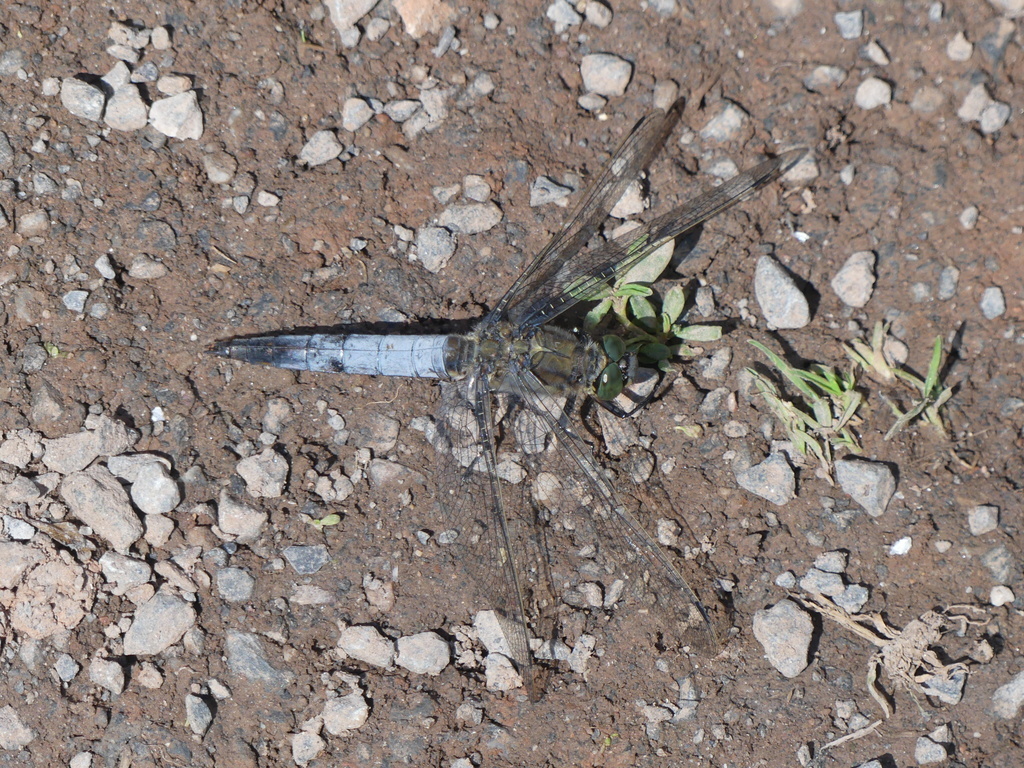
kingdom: Animalia
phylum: Arthropoda
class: Insecta
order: Odonata
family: Libellulidae
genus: Orthetrum
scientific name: Orthetrum cancellatum
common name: Black-tailed skimmer
